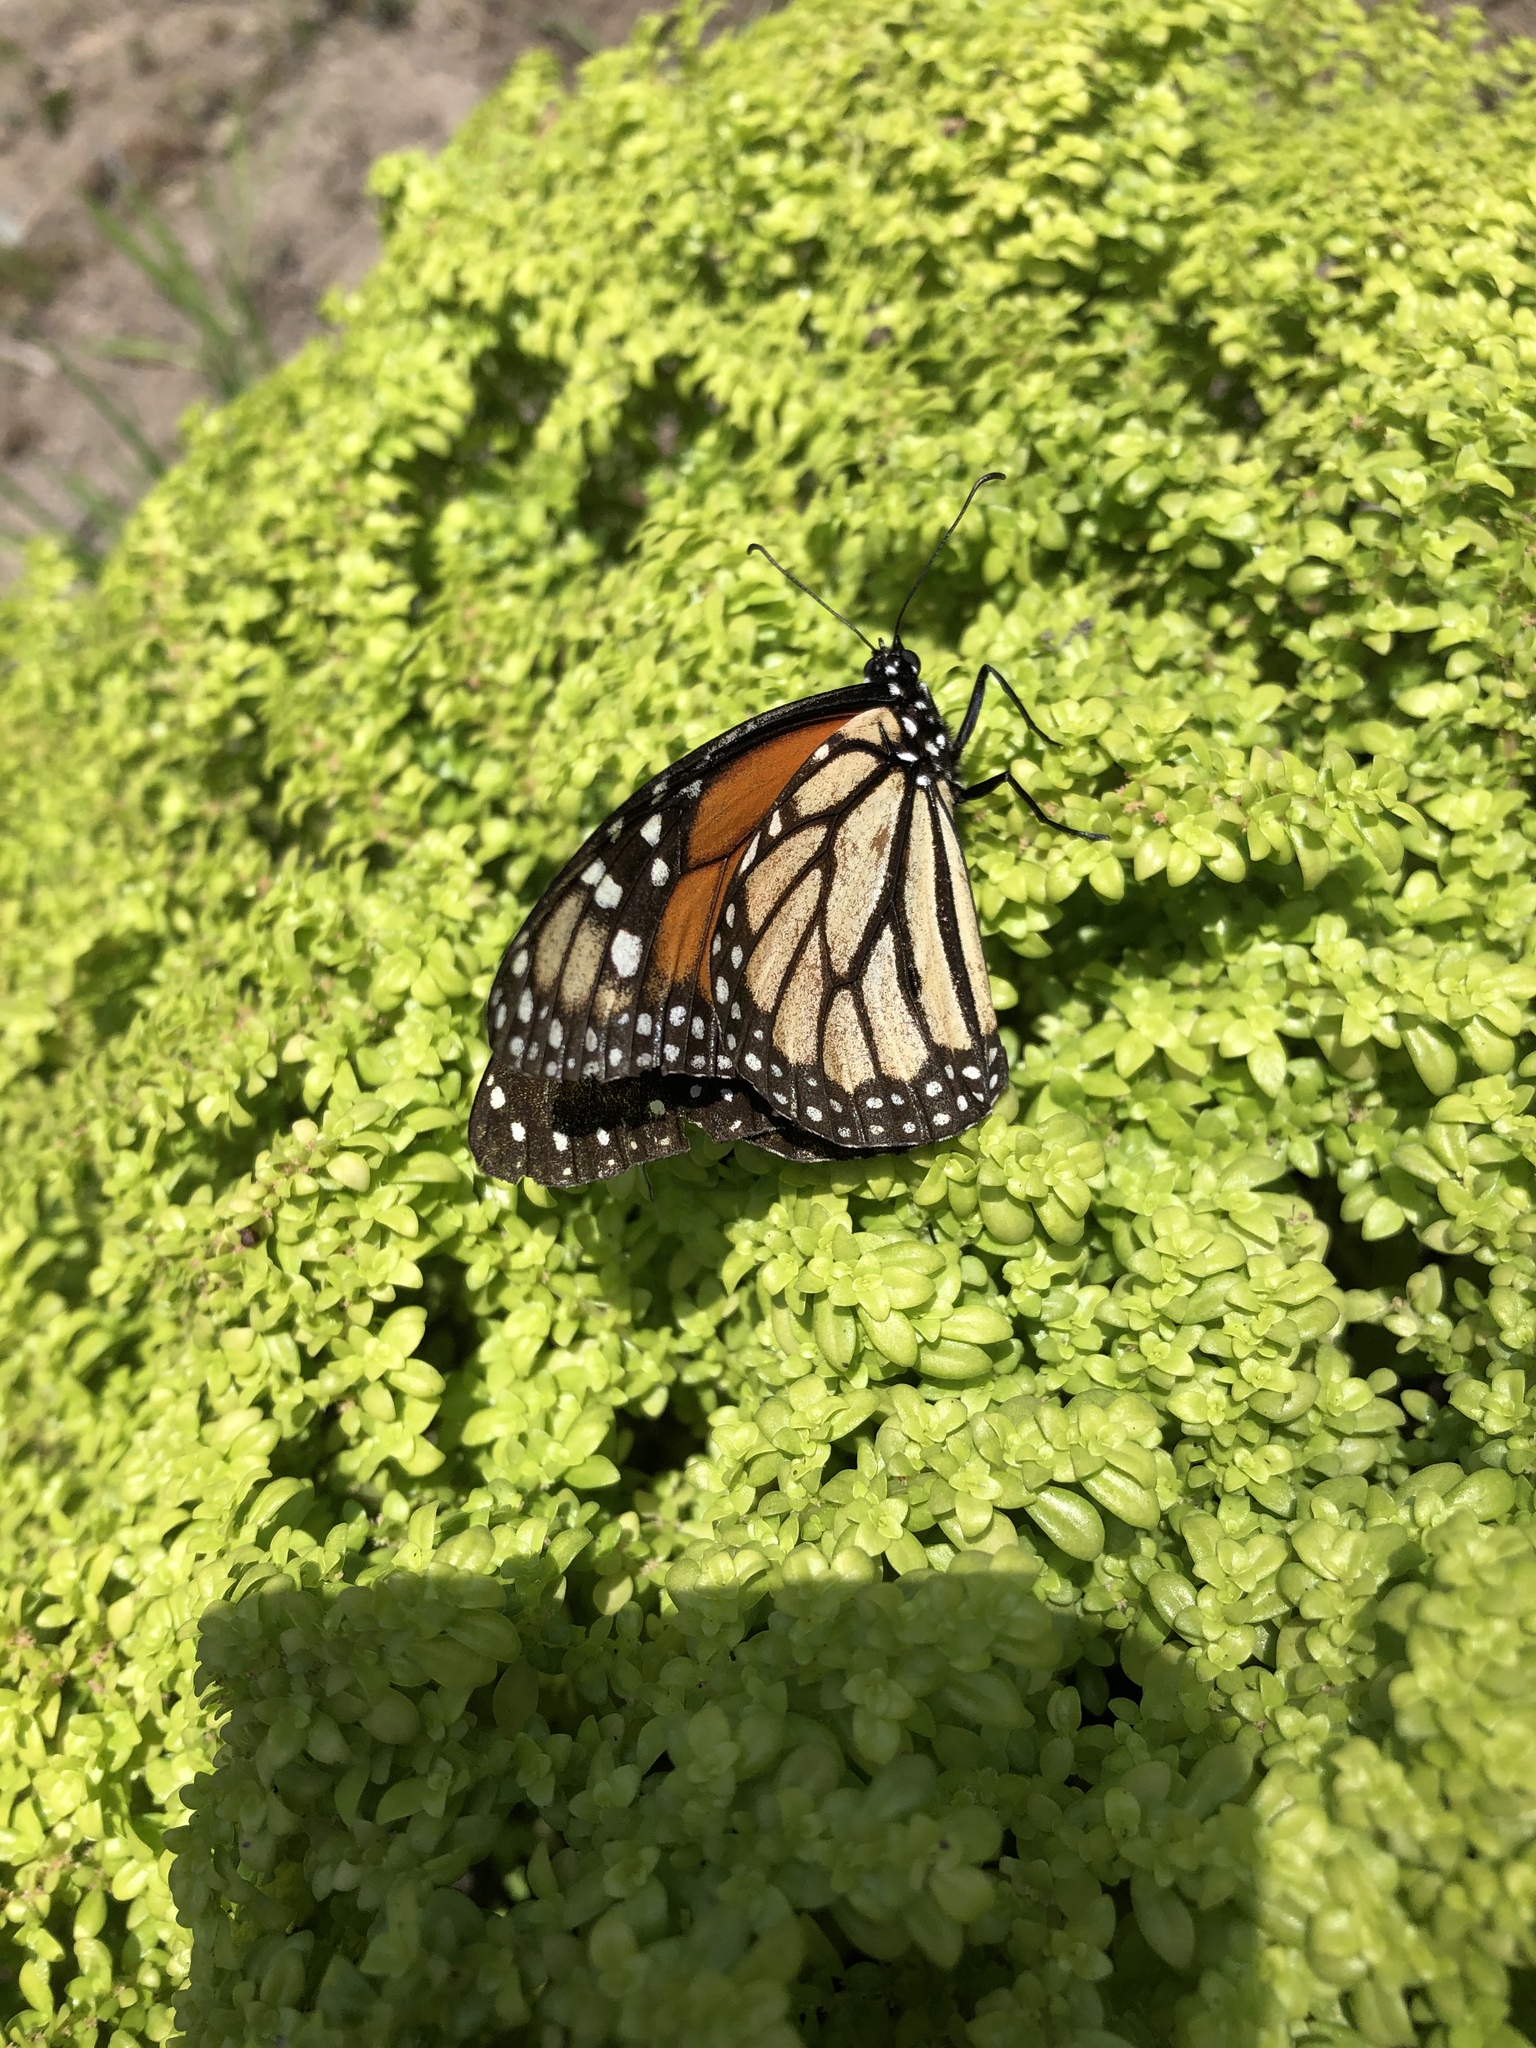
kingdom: Animalia
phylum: Arthropoda
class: Insecta
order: Lepidoptera
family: Nymphalidae
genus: Danaus
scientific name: Danaus plexippus
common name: Monarch
